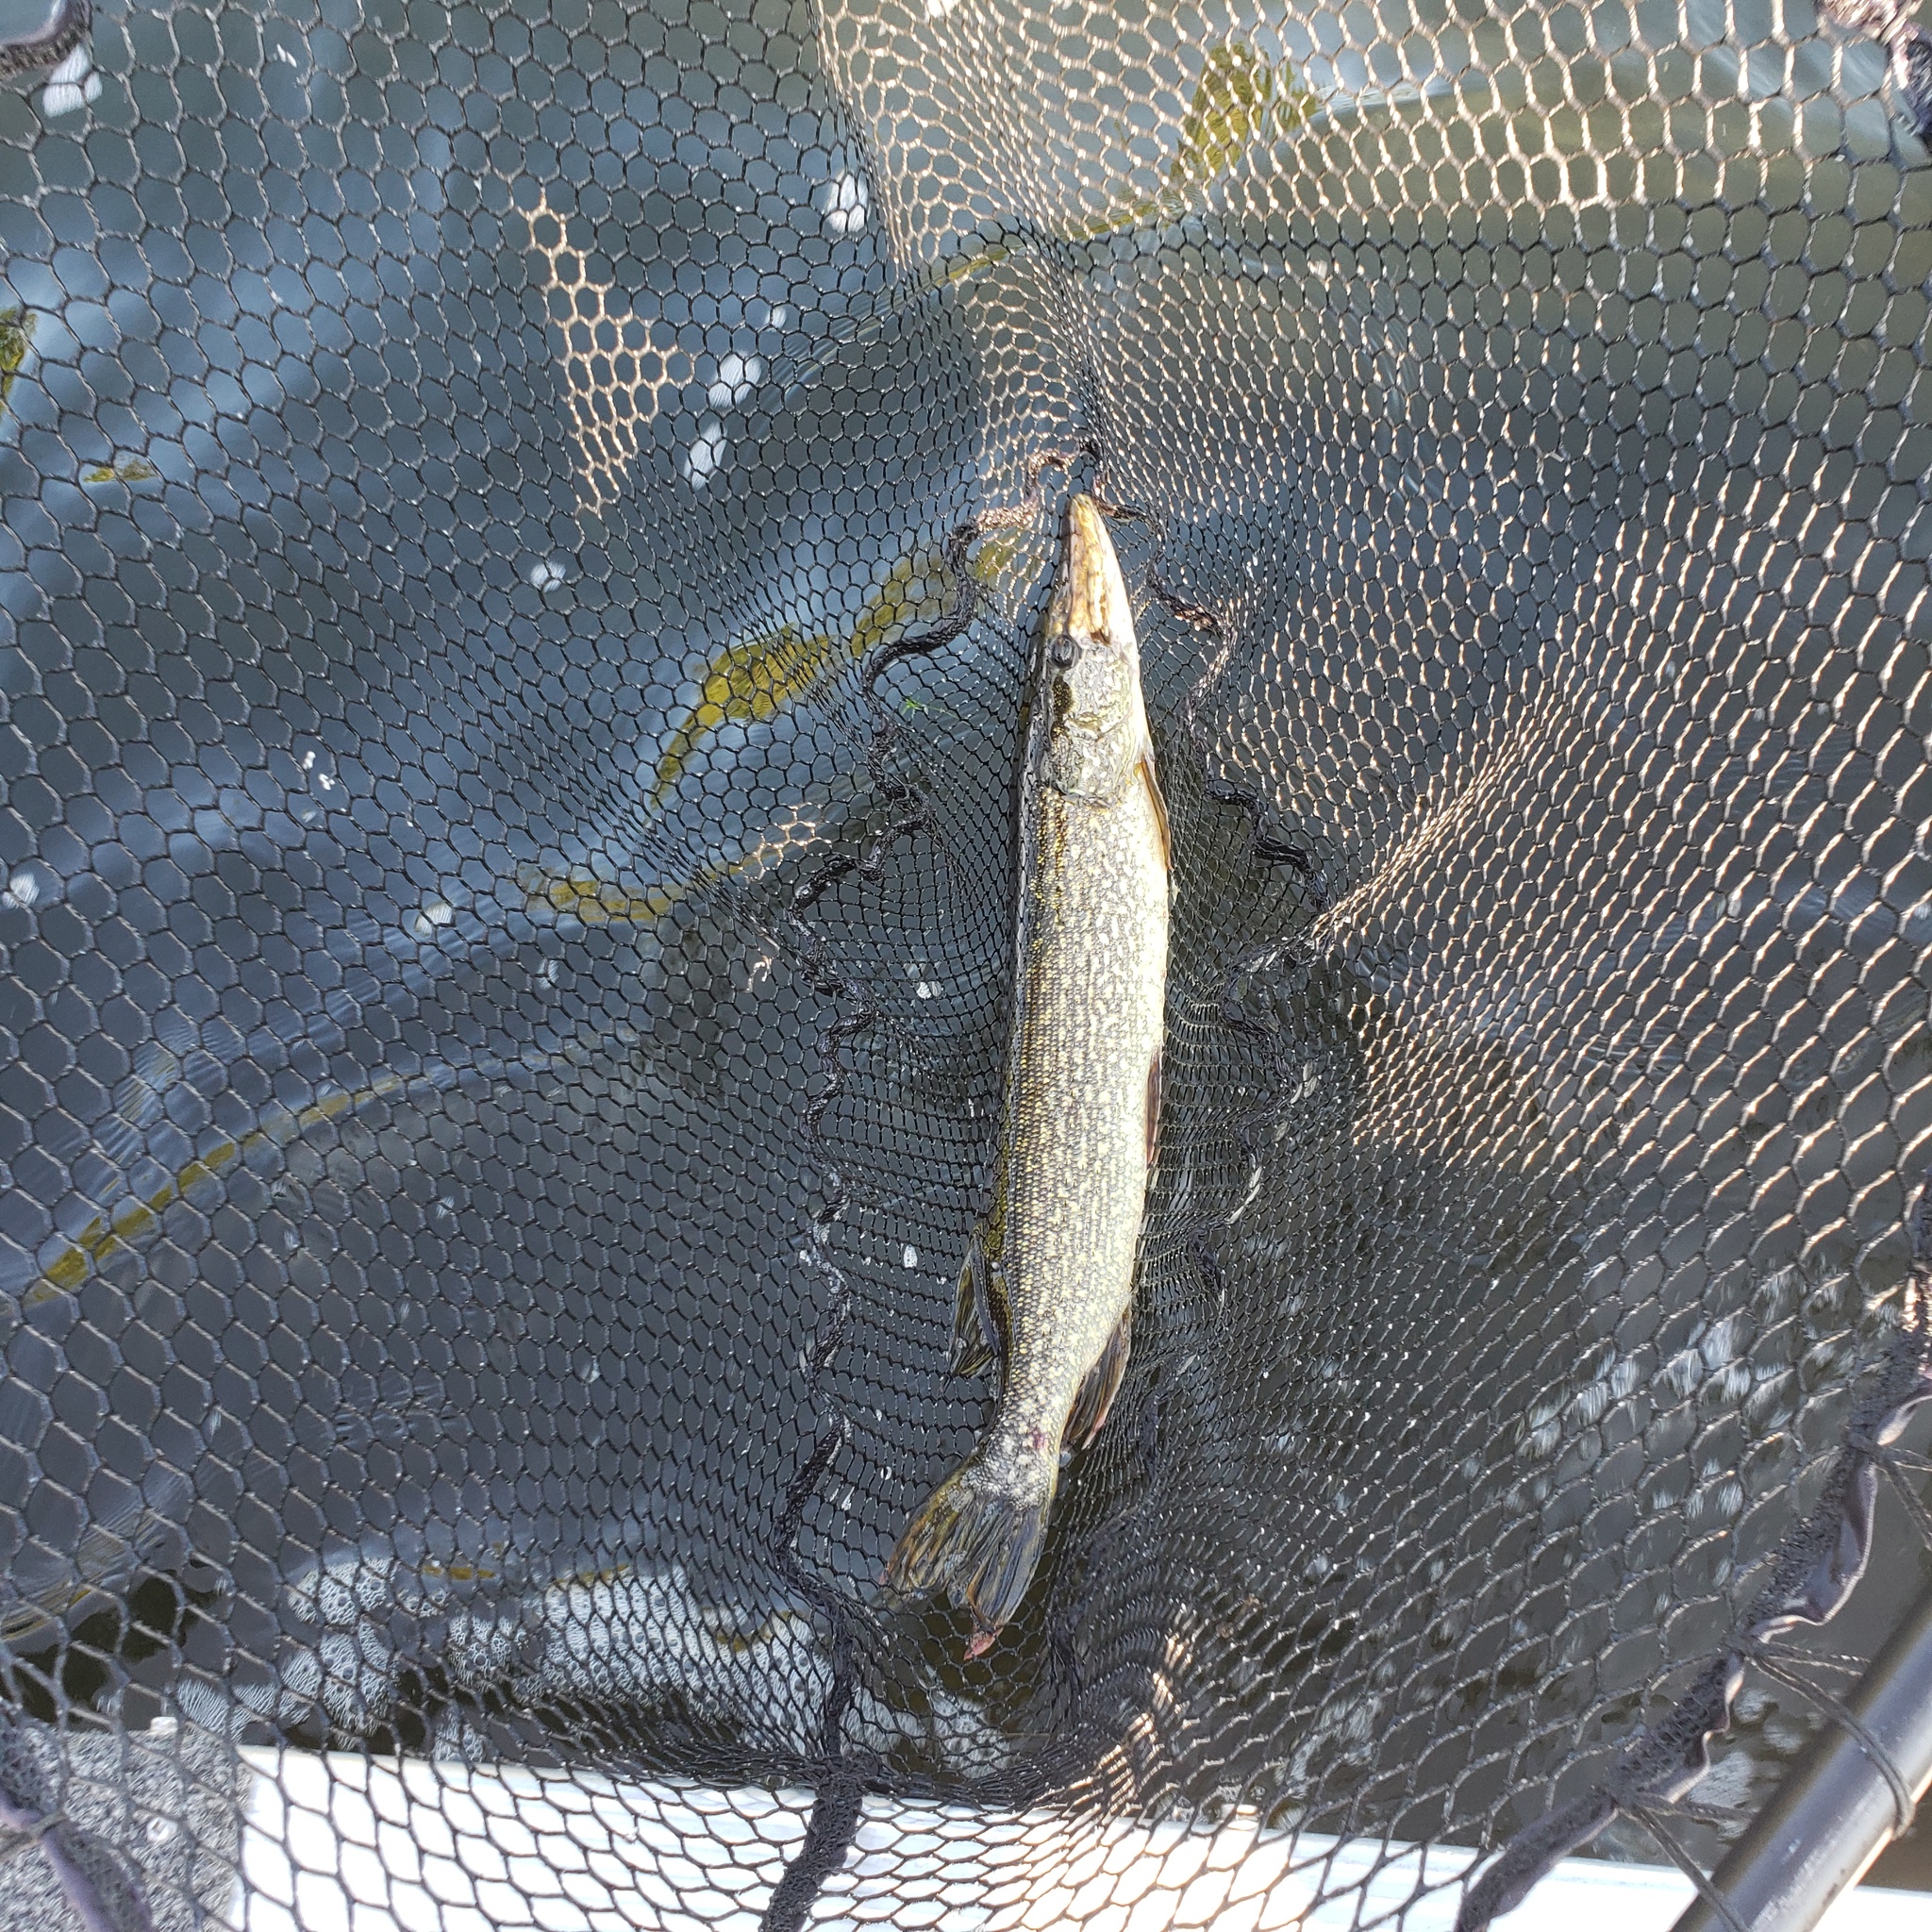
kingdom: Animalia
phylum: Chordata
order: Esociformes
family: Esocidae
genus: Esox
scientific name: Esox lucius
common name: Northern pike
